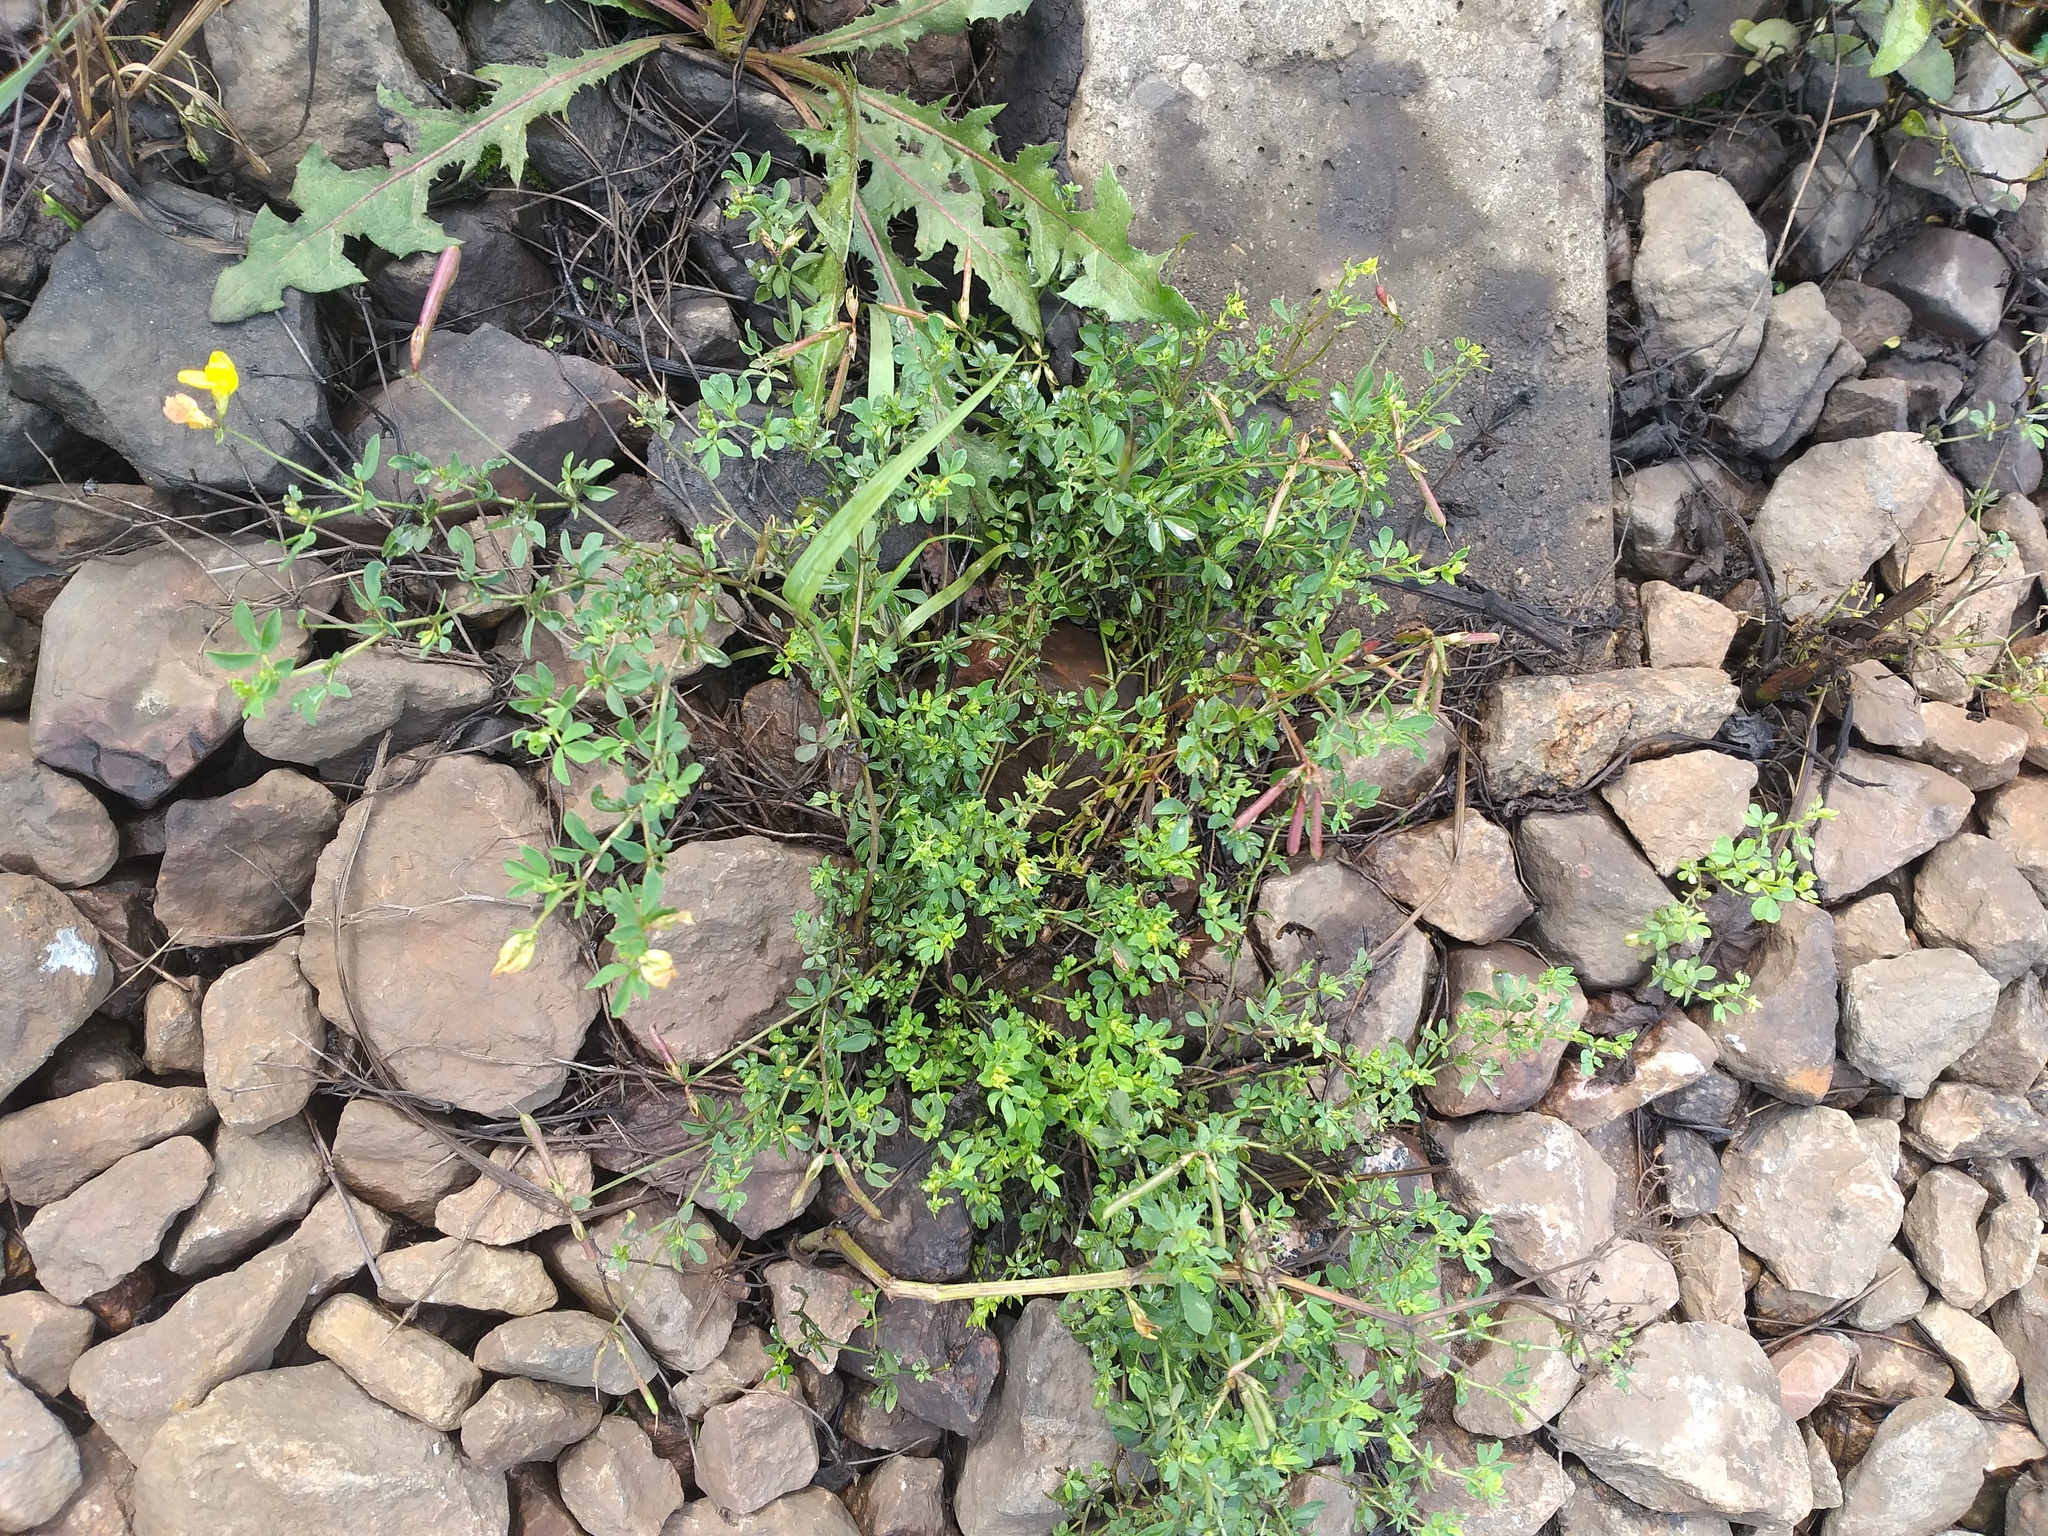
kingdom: Plantae
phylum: Tracheophyta
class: Magnoliopsida
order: Fabales
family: Fabaceae
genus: Lotus
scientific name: Lotus corniculatus
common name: Common bird's-foot-trefoil
